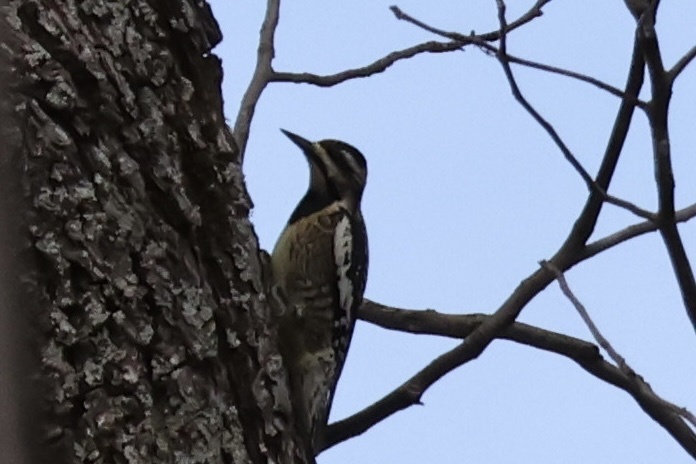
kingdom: Animalia
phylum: Chordata
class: Aves
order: Piciformes
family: Picidae
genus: Sphyrapicus
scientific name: Sphyrapicus varius
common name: Yellow-bellied sapsucker
